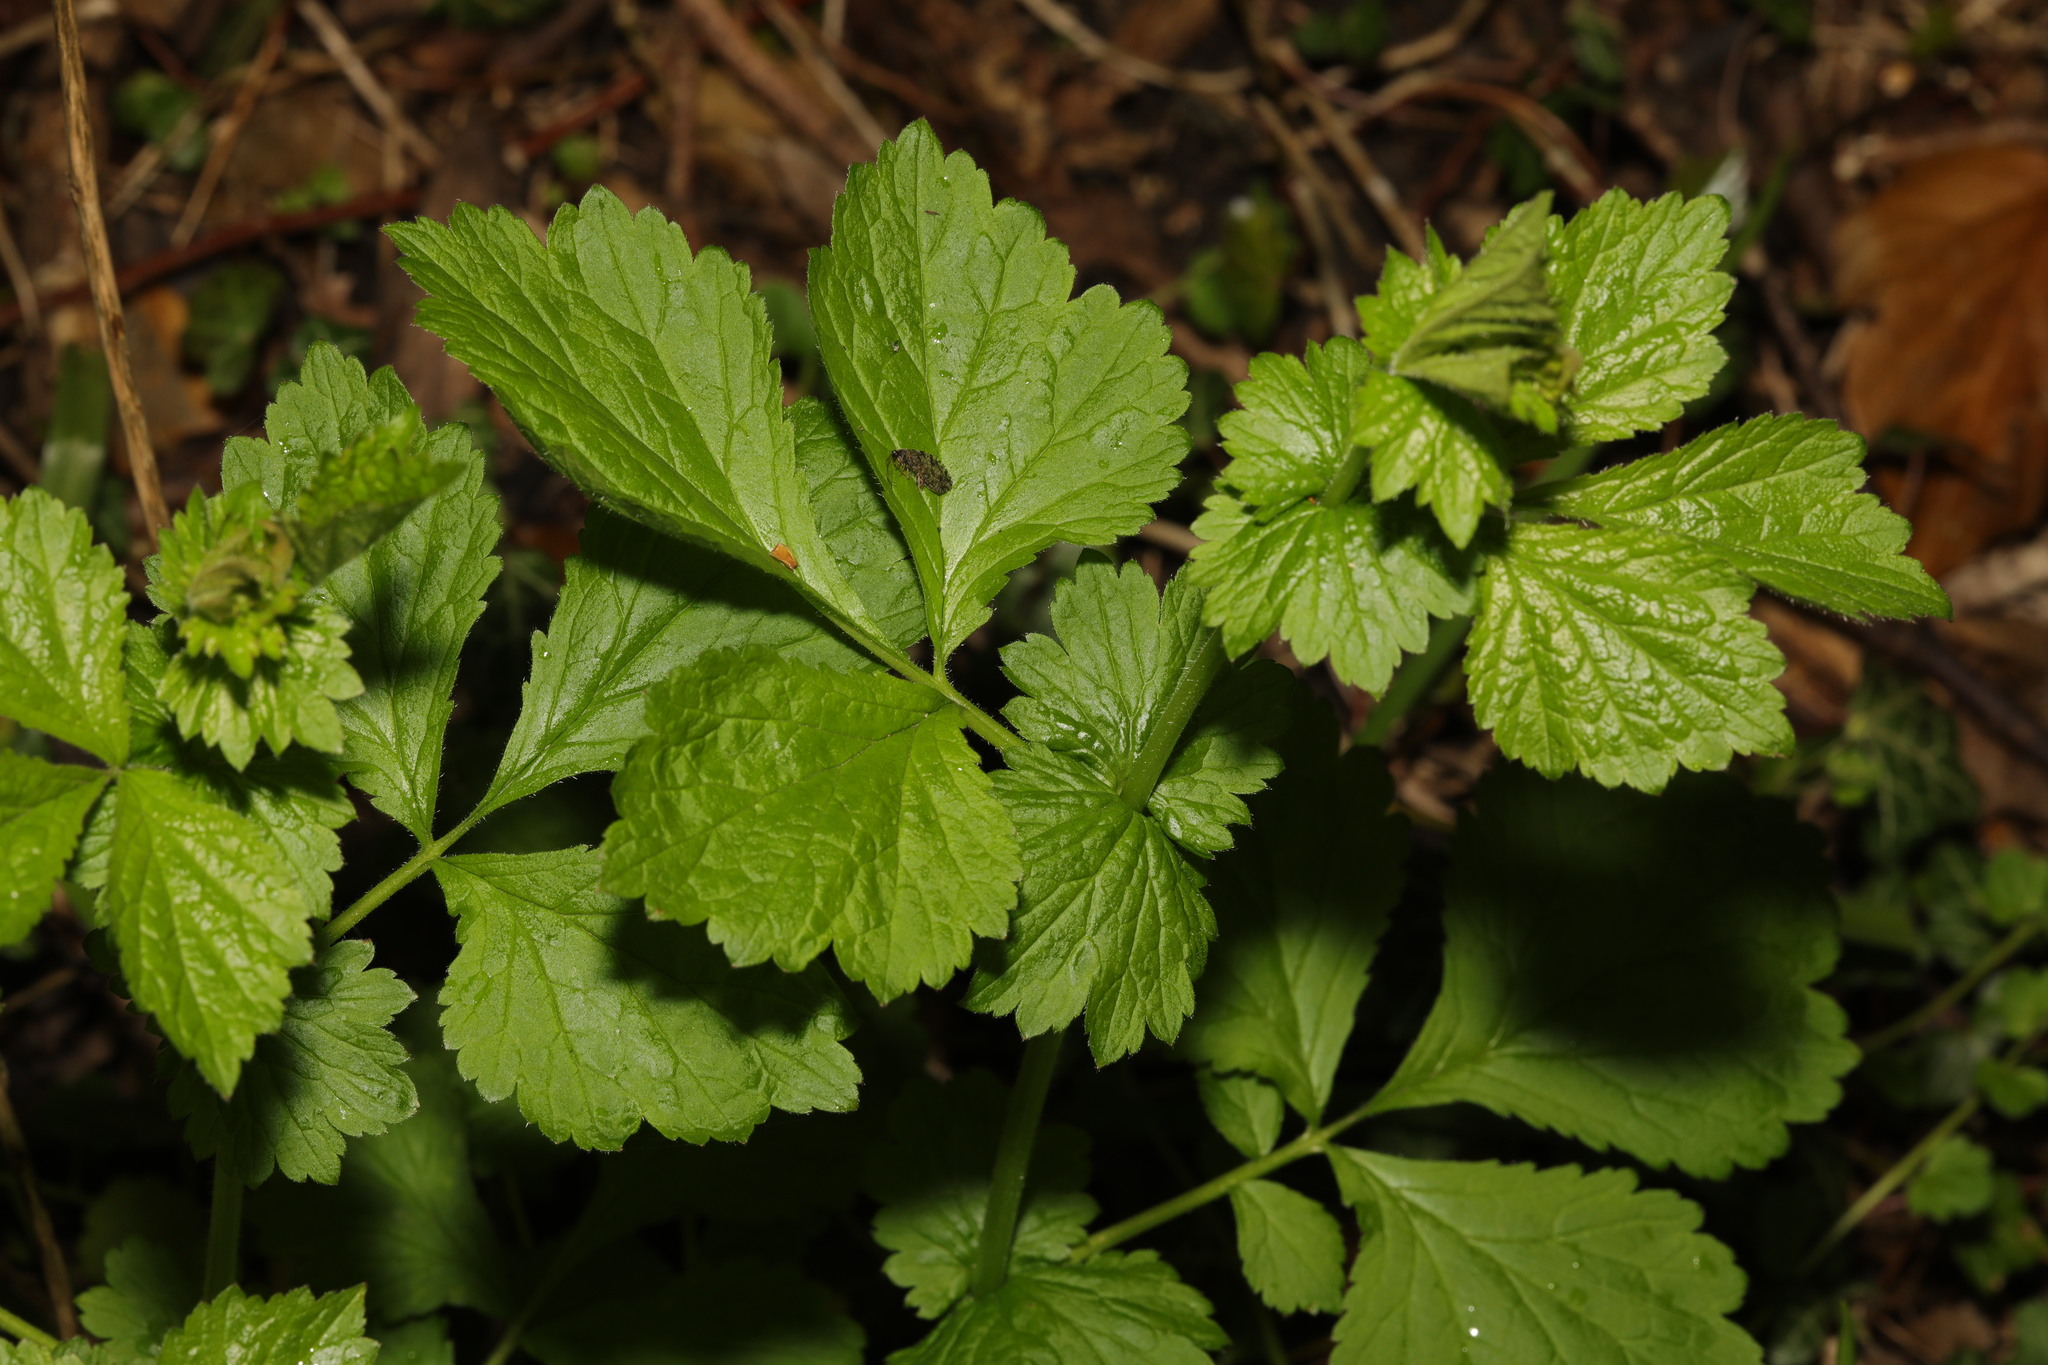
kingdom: Plantae
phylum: Tracheophyta
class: Magnoliopsida
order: Rosales
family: Rosaceae
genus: Geum
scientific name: Geum urbanum
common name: Wood avens
